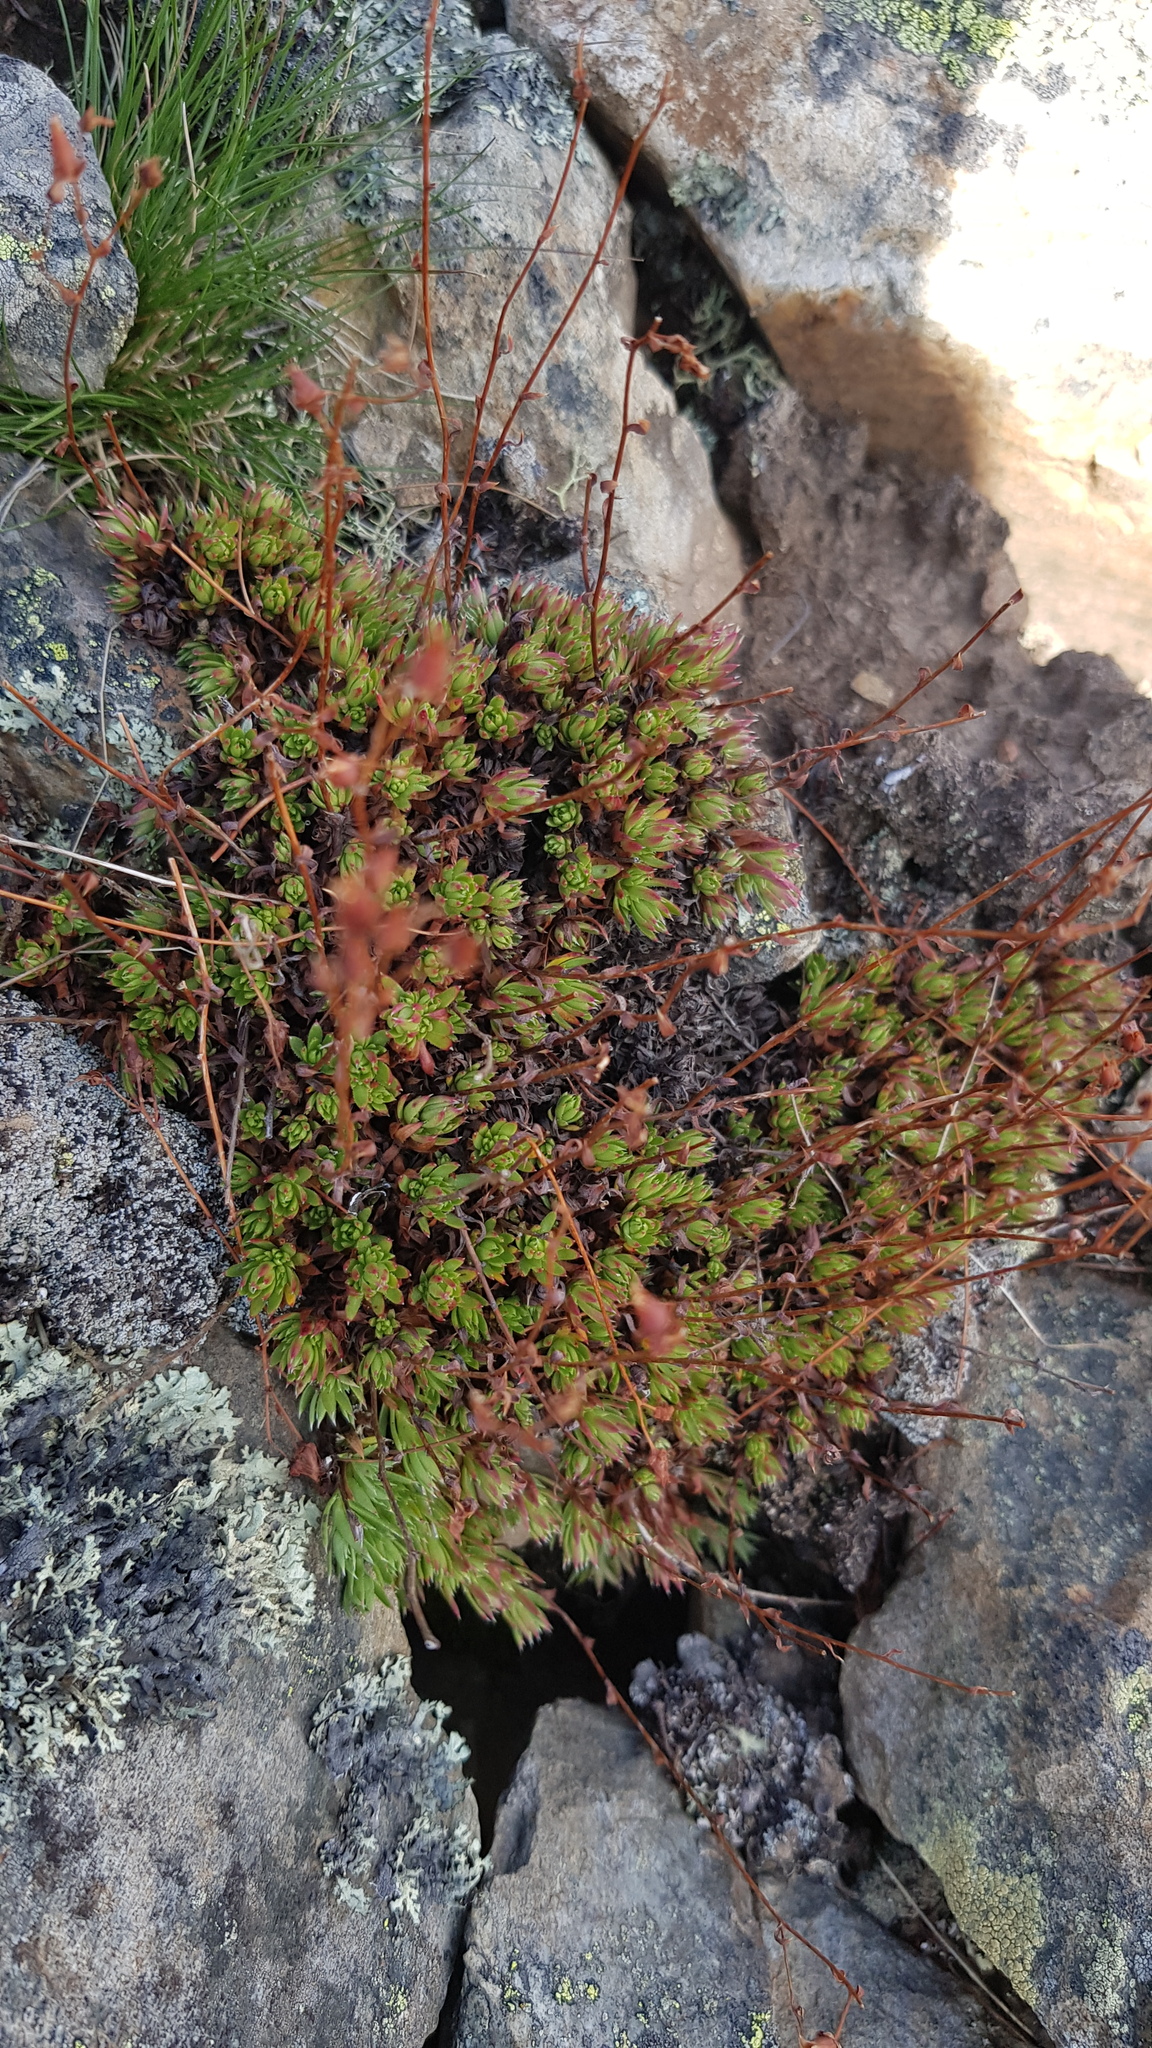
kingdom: Plantae
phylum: Tracheophyta
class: Magnoliopsida
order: Saxifragales
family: Saxifragaceae
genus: Saxifraga
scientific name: Saxifraga
